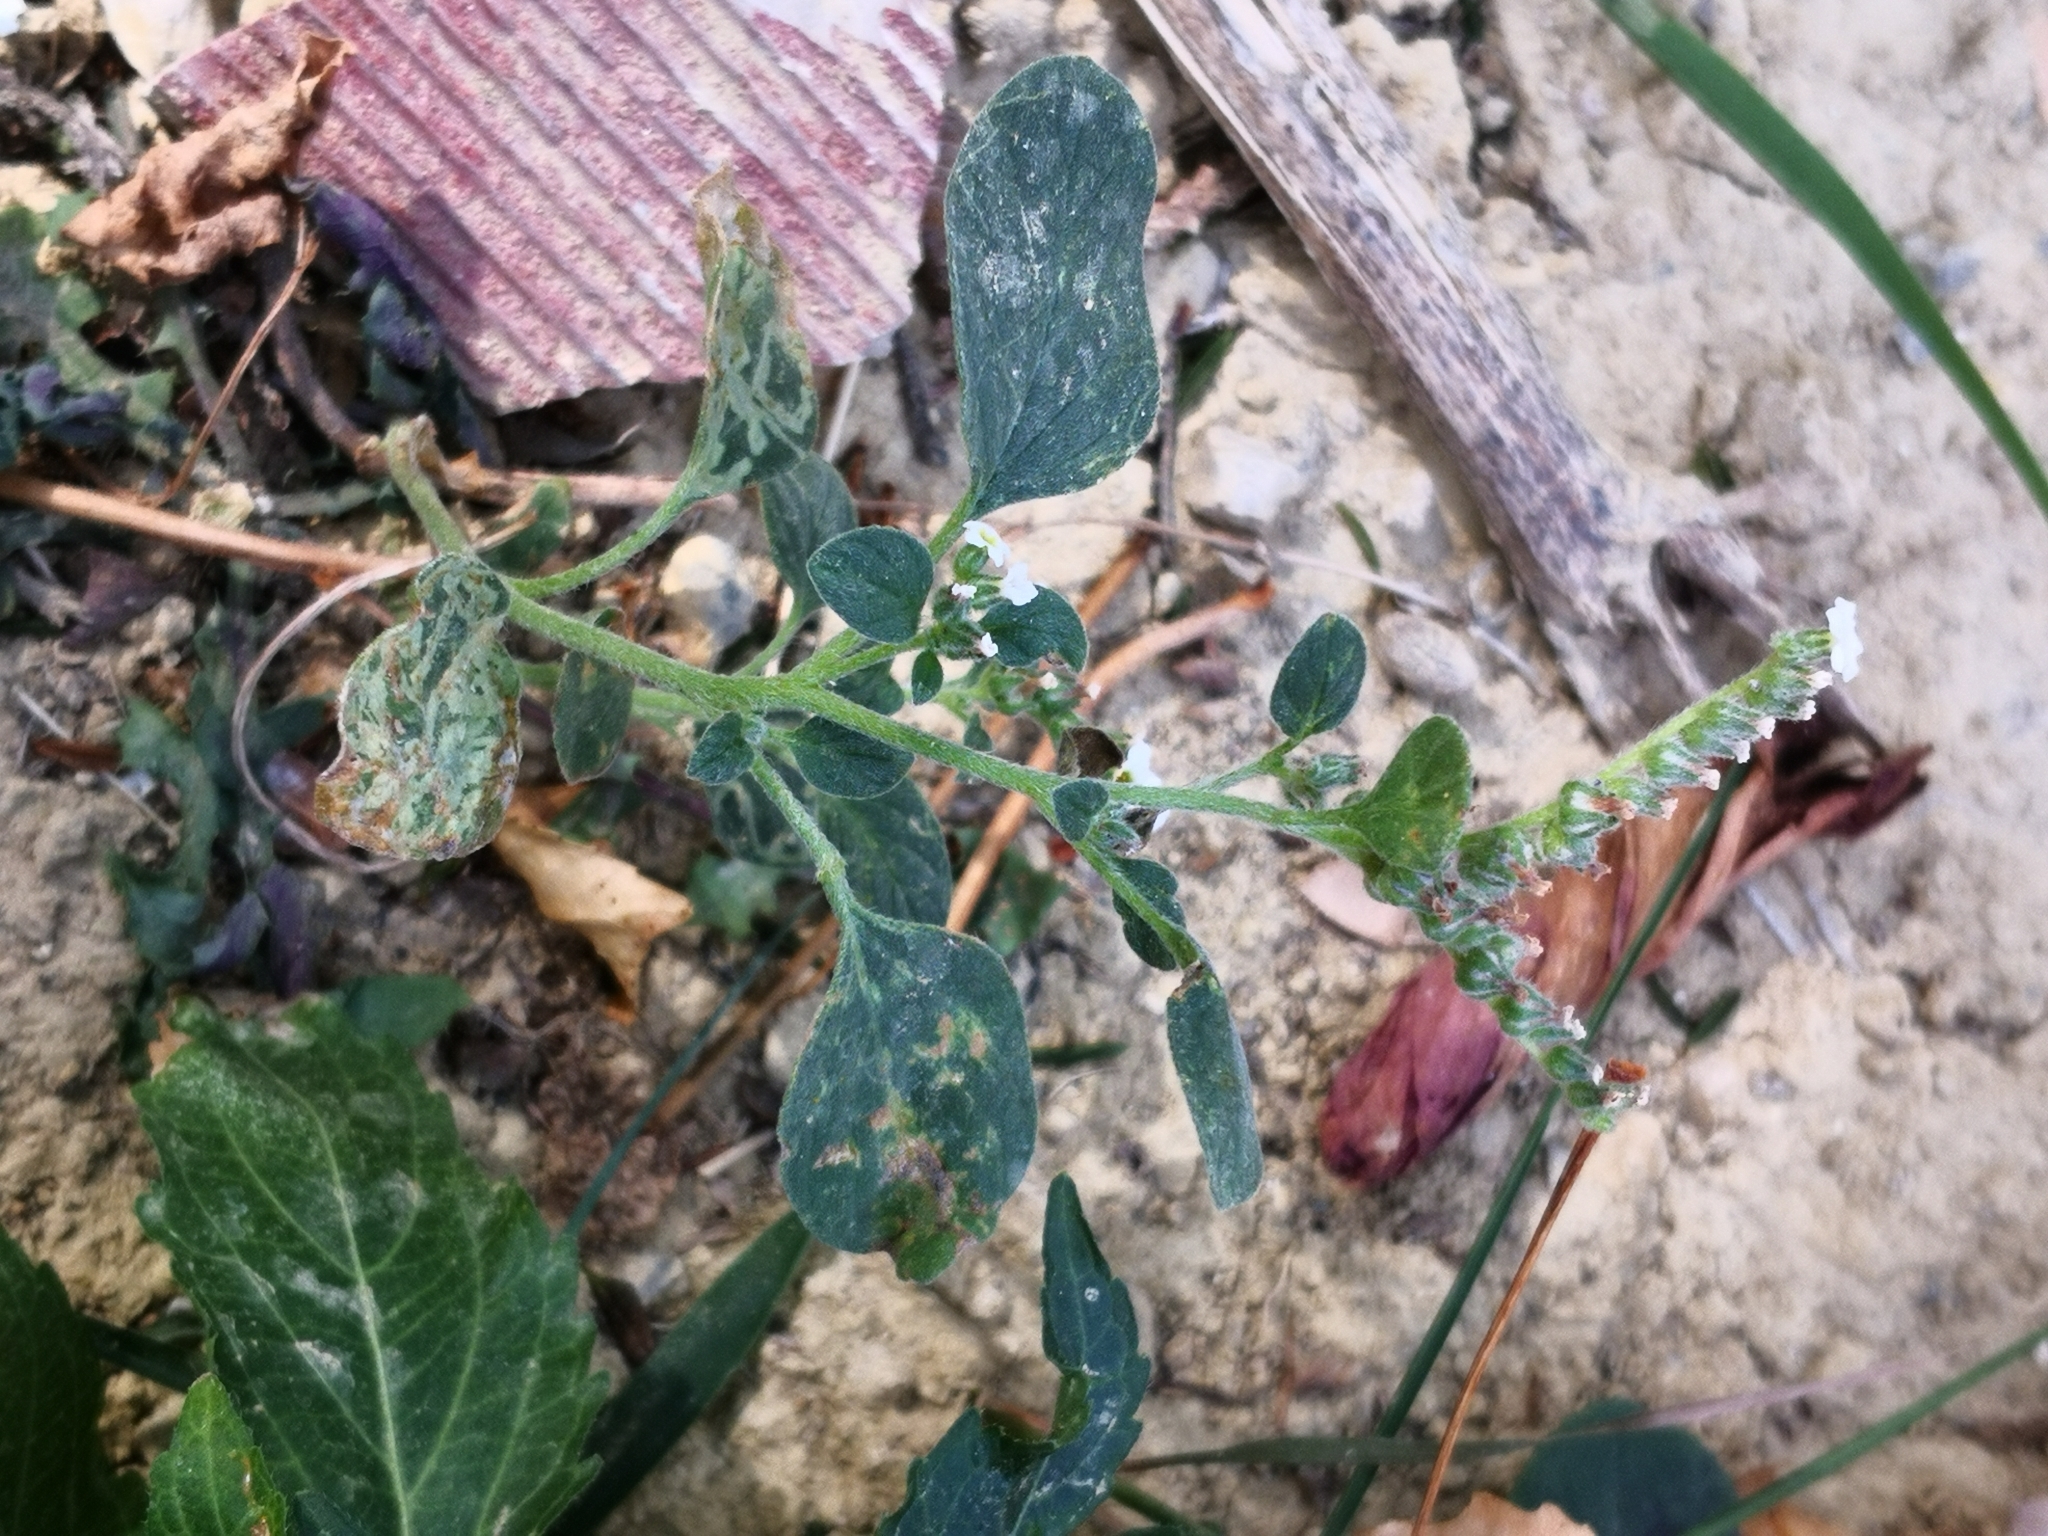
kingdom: Plantae
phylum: Tracheophyta
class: Magnoliopsida
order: Boraginales
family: Heliotropiaceae
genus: Heliotropium
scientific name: Heliotropium dolosum
